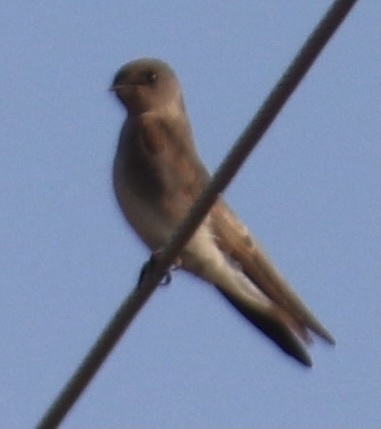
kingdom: Animalia
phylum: Chordata
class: Aves
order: Passeriformes
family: Hirundinidae
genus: Stelgidopteryx
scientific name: Stelgidopteryx serripennis
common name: Northern rough-winged swallow
